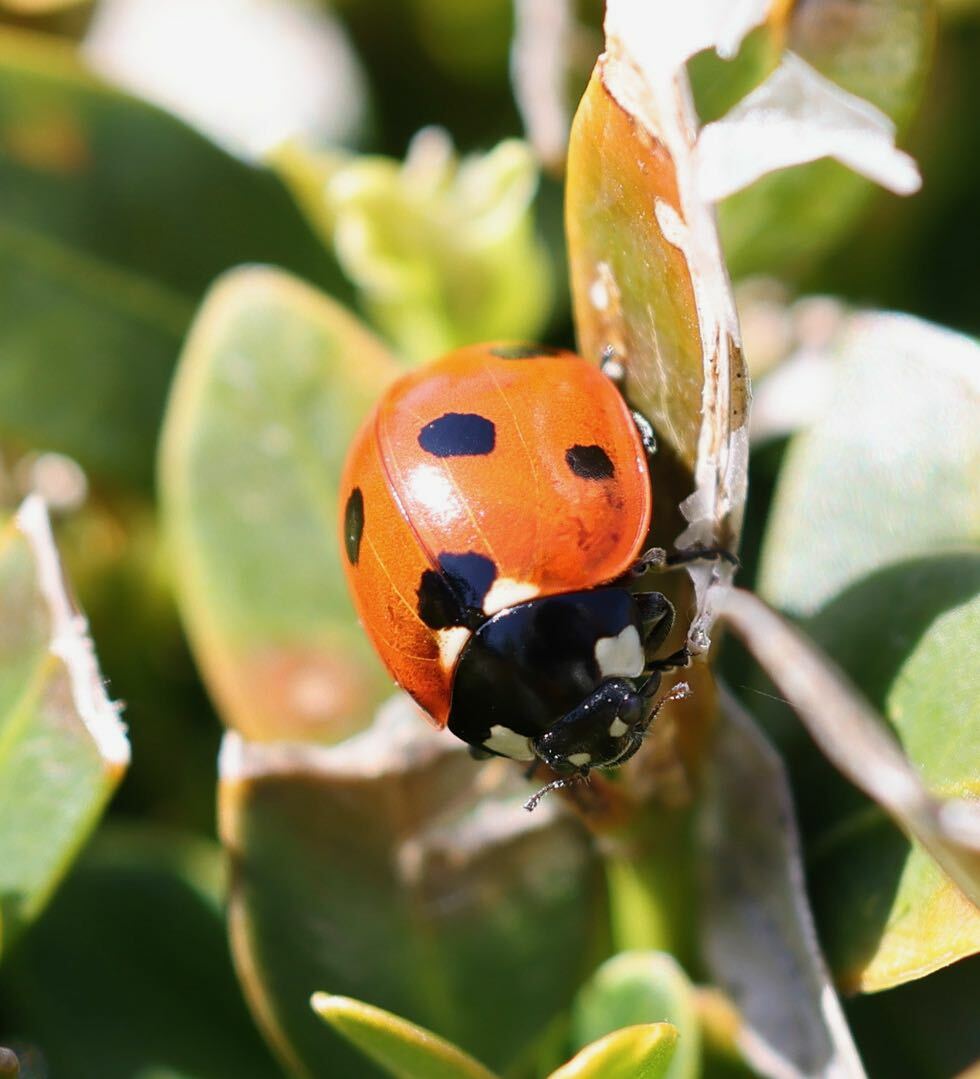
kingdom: Animalia
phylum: Arthropoda
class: Insecta
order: Coleoptera
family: Coccinellidae
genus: Coccinella
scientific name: Coccinella septempunctata
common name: Sevenspotted lady beetle
